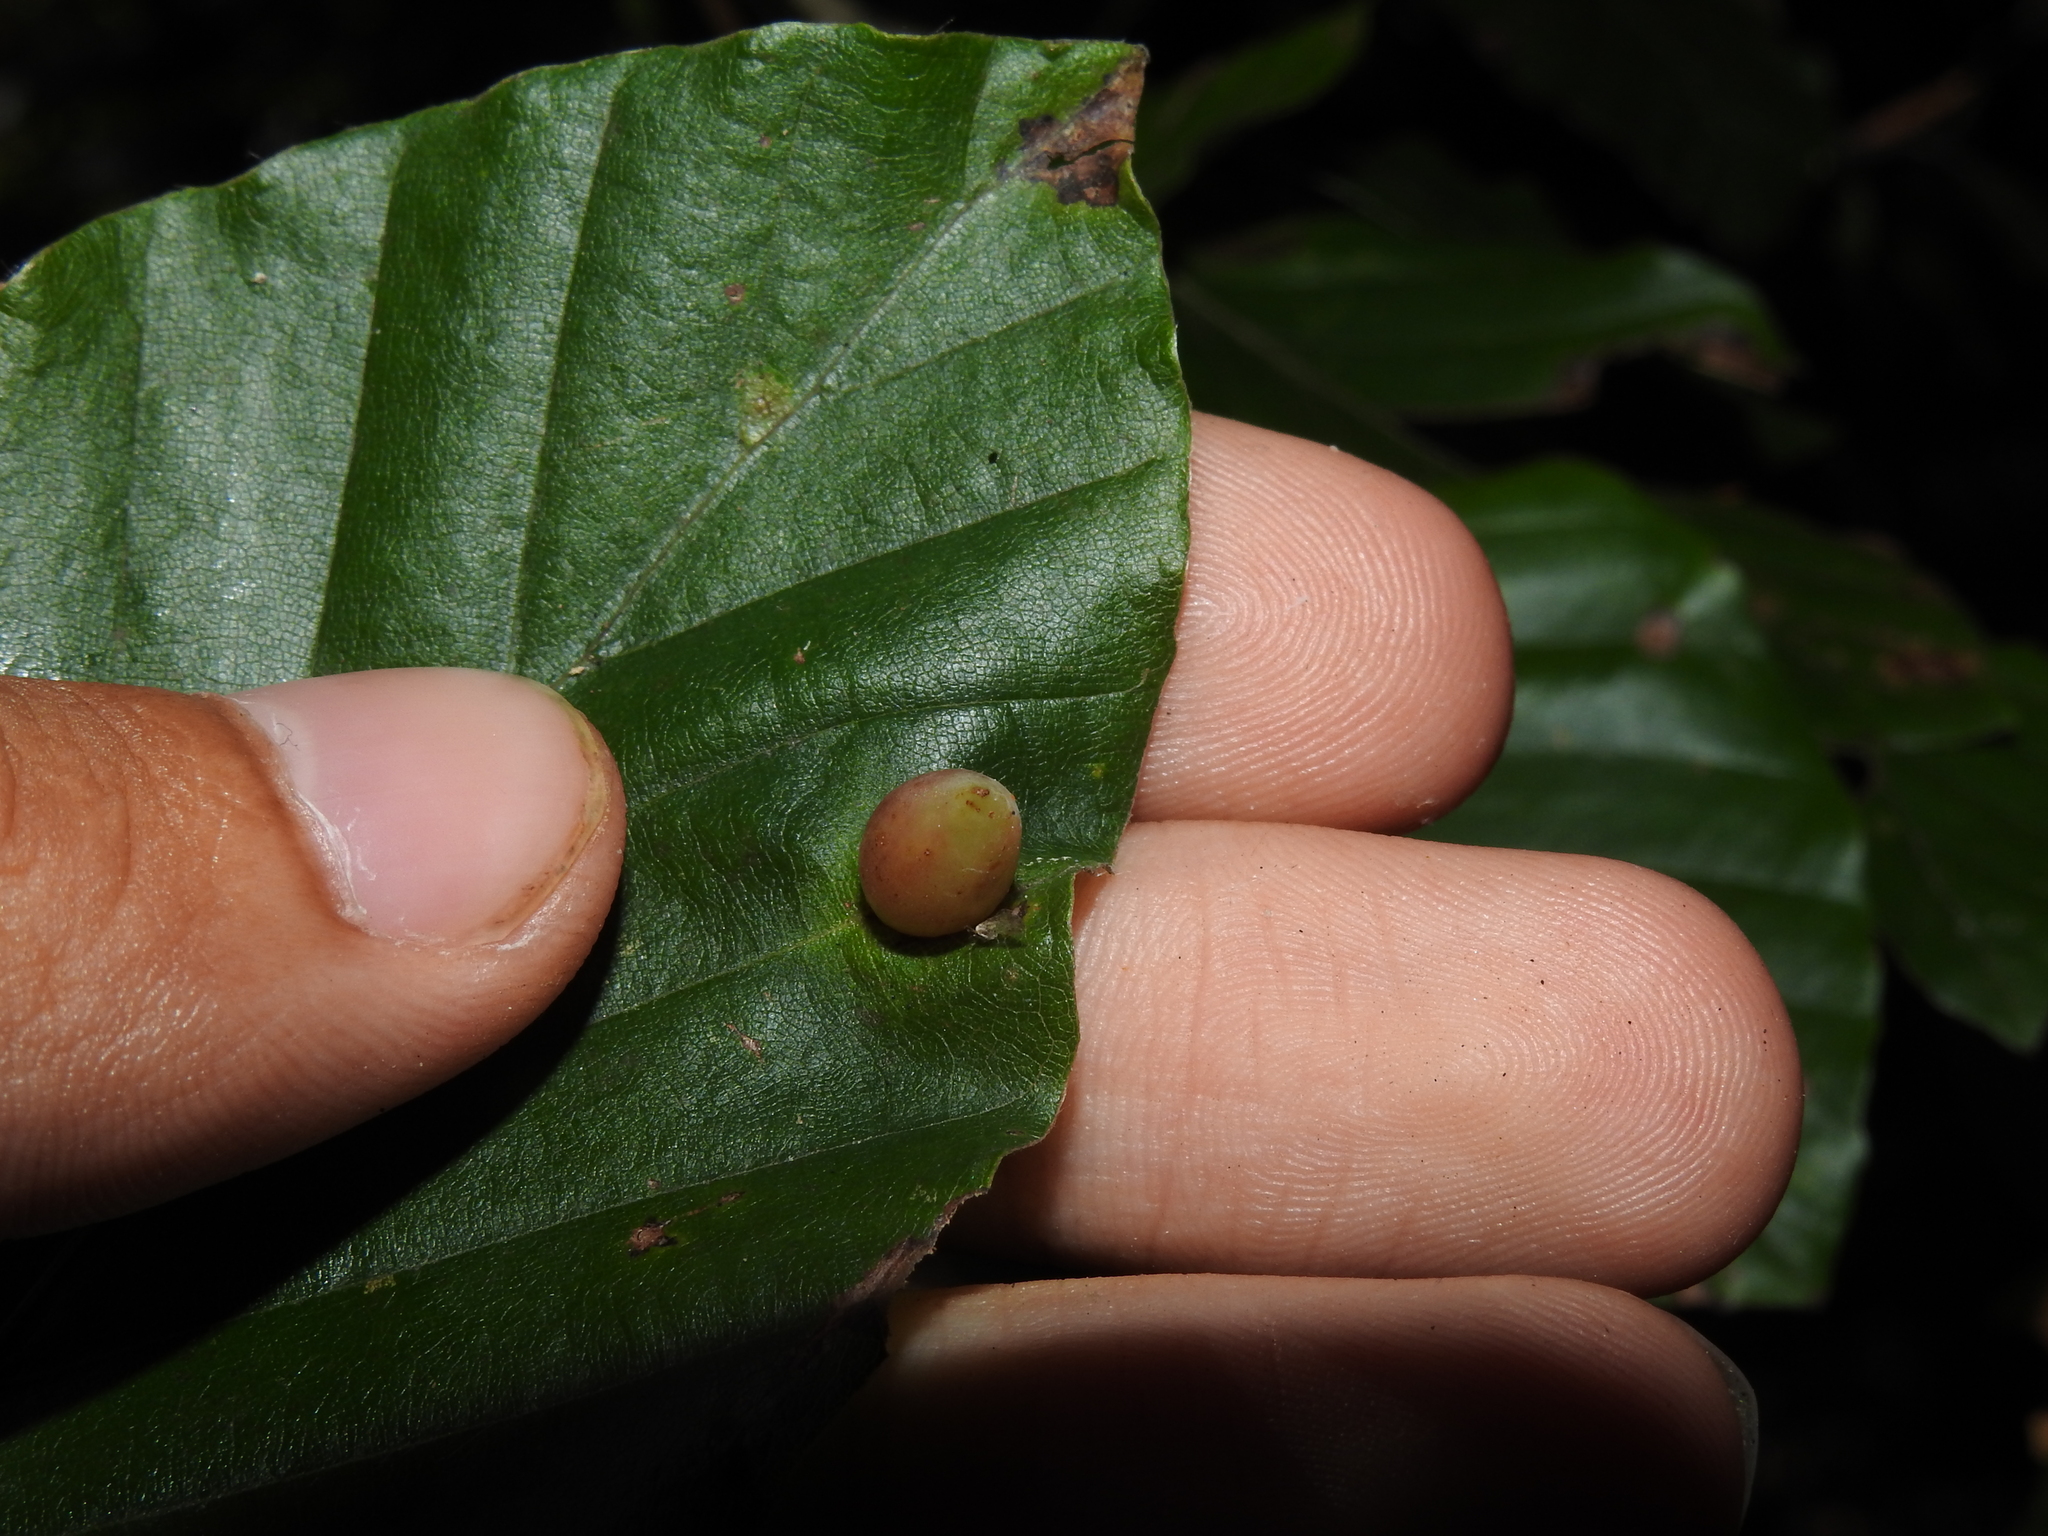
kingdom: Animalia
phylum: Arthropoda
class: Insecta
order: Diptera
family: Cecidomyiidae
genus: Mikiola
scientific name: Mikiola fagi
